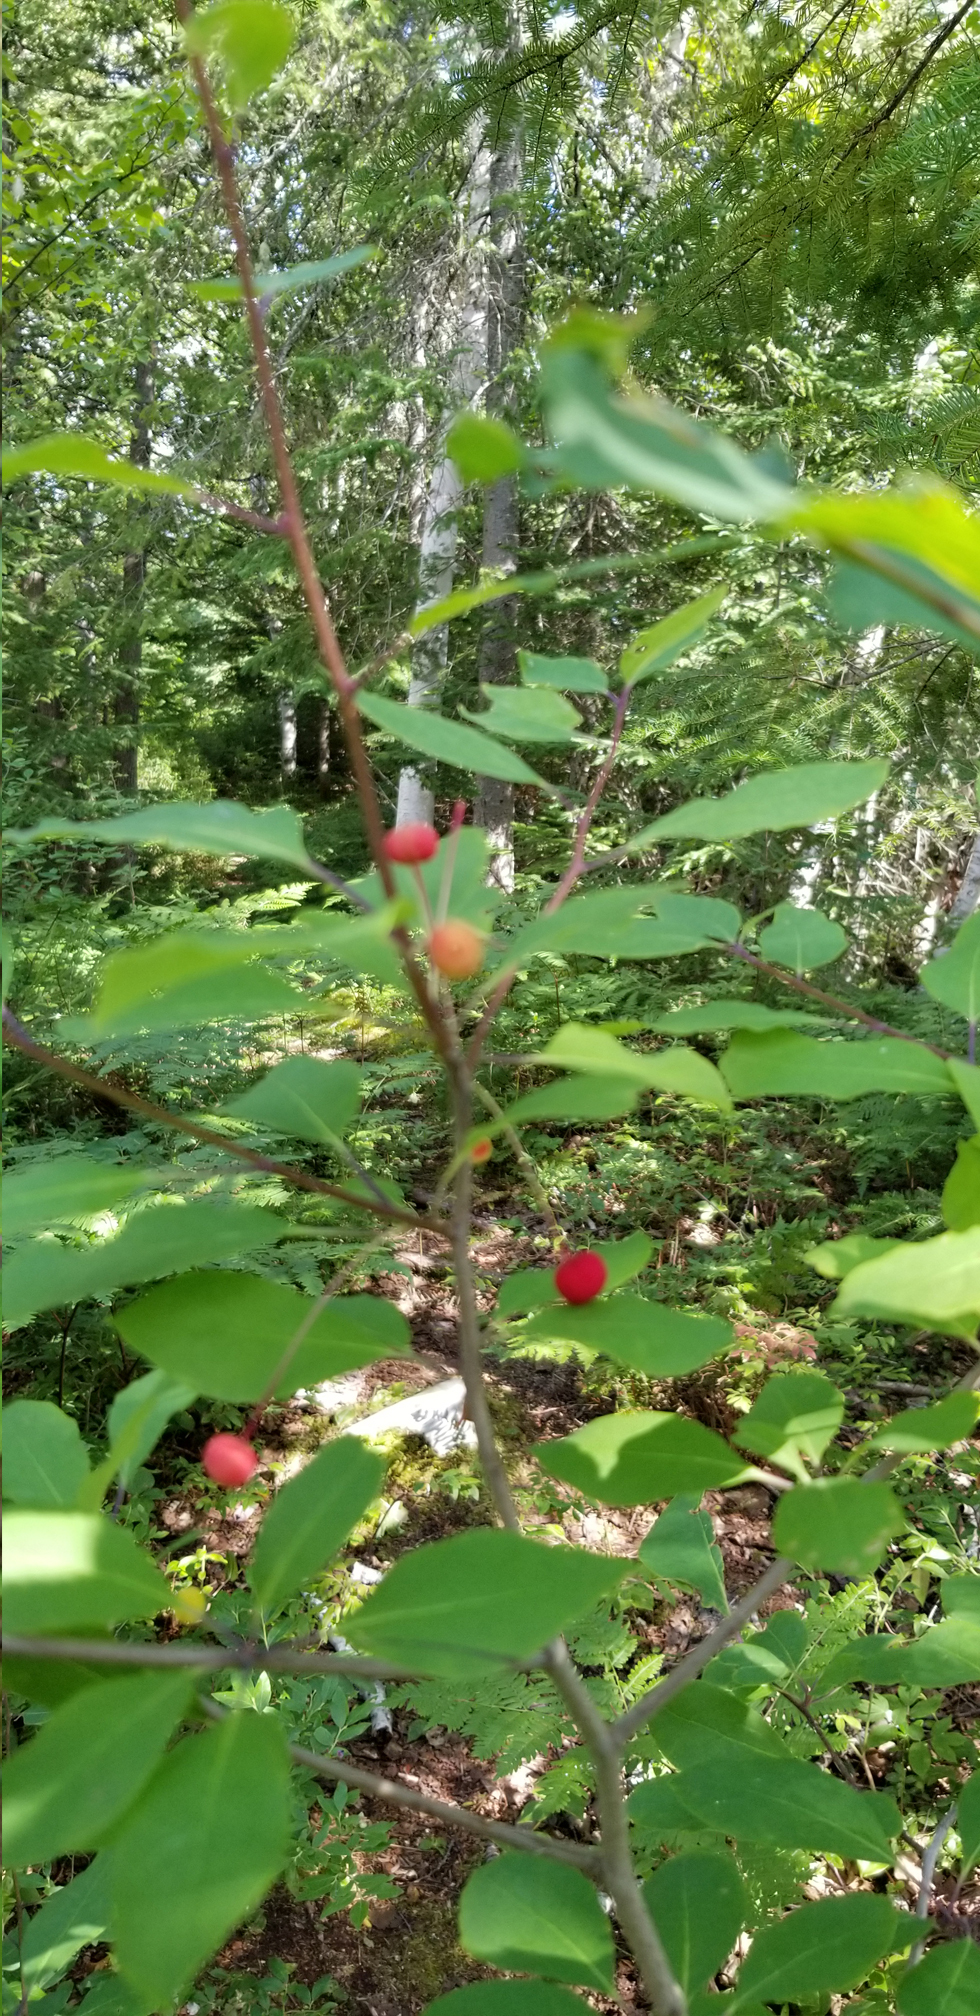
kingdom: Plantae
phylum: Tracheophyta
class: Magnoliopsida
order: Aquifoliales
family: Aquifoliaceae
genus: Ilex
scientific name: Ilex mucronata
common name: Catberry
